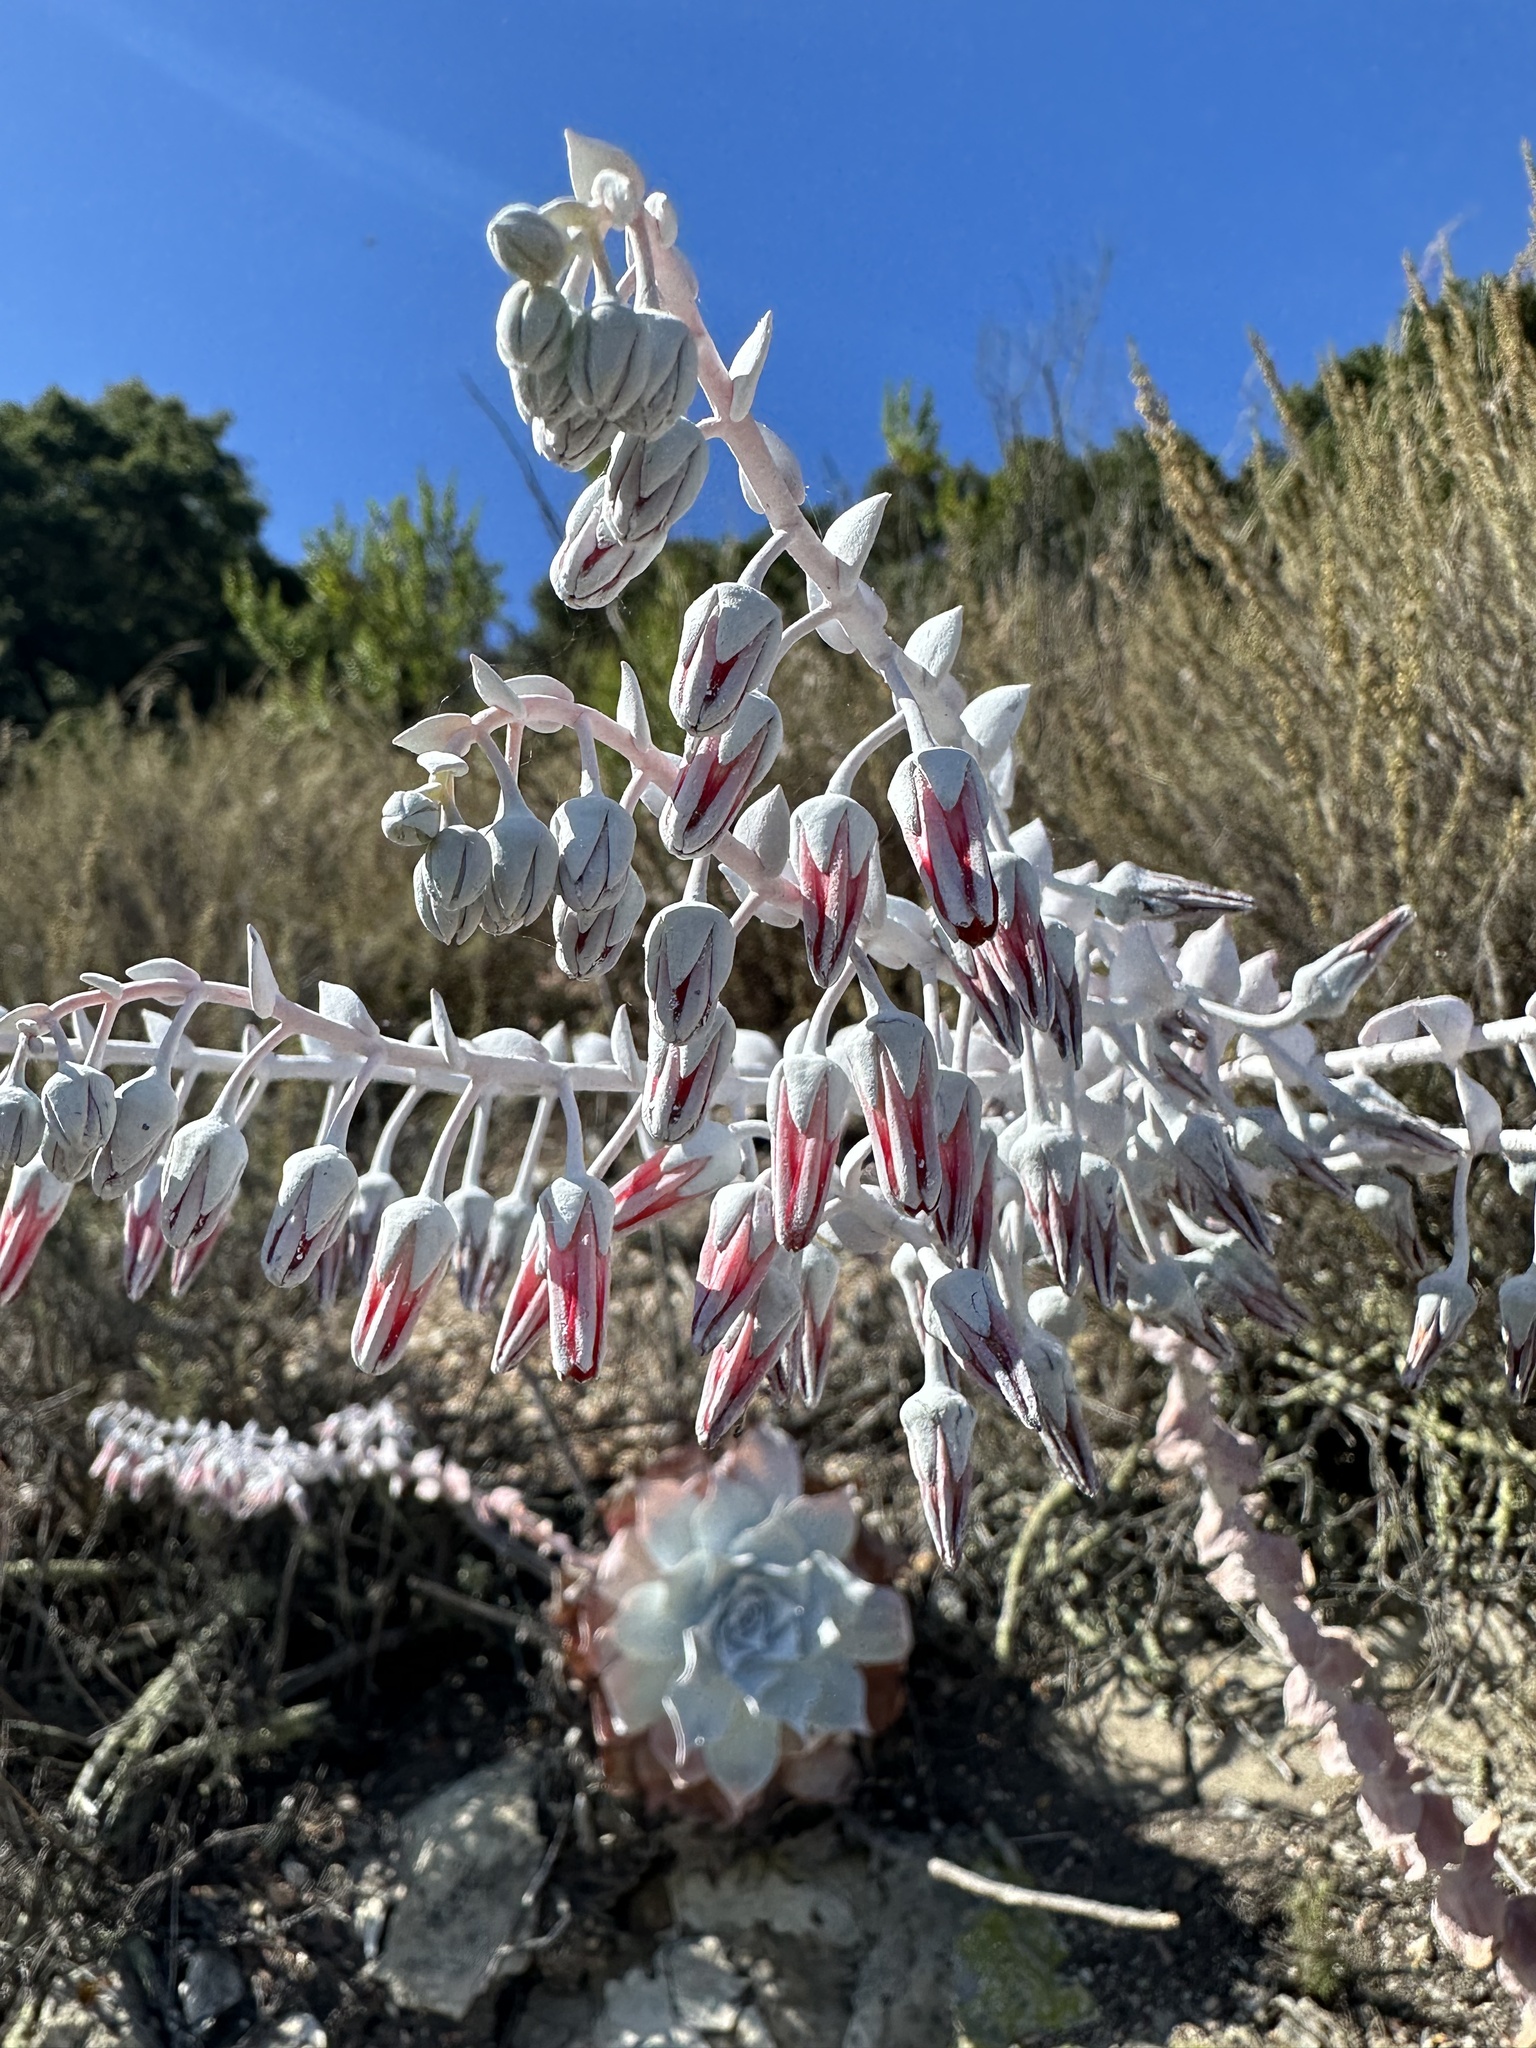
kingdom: Plantae
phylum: Tracheophyta
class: Magnoliopsida
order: Saxifragales
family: Crassulaceae
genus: Dudleya
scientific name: Dudleya pulverulenta
